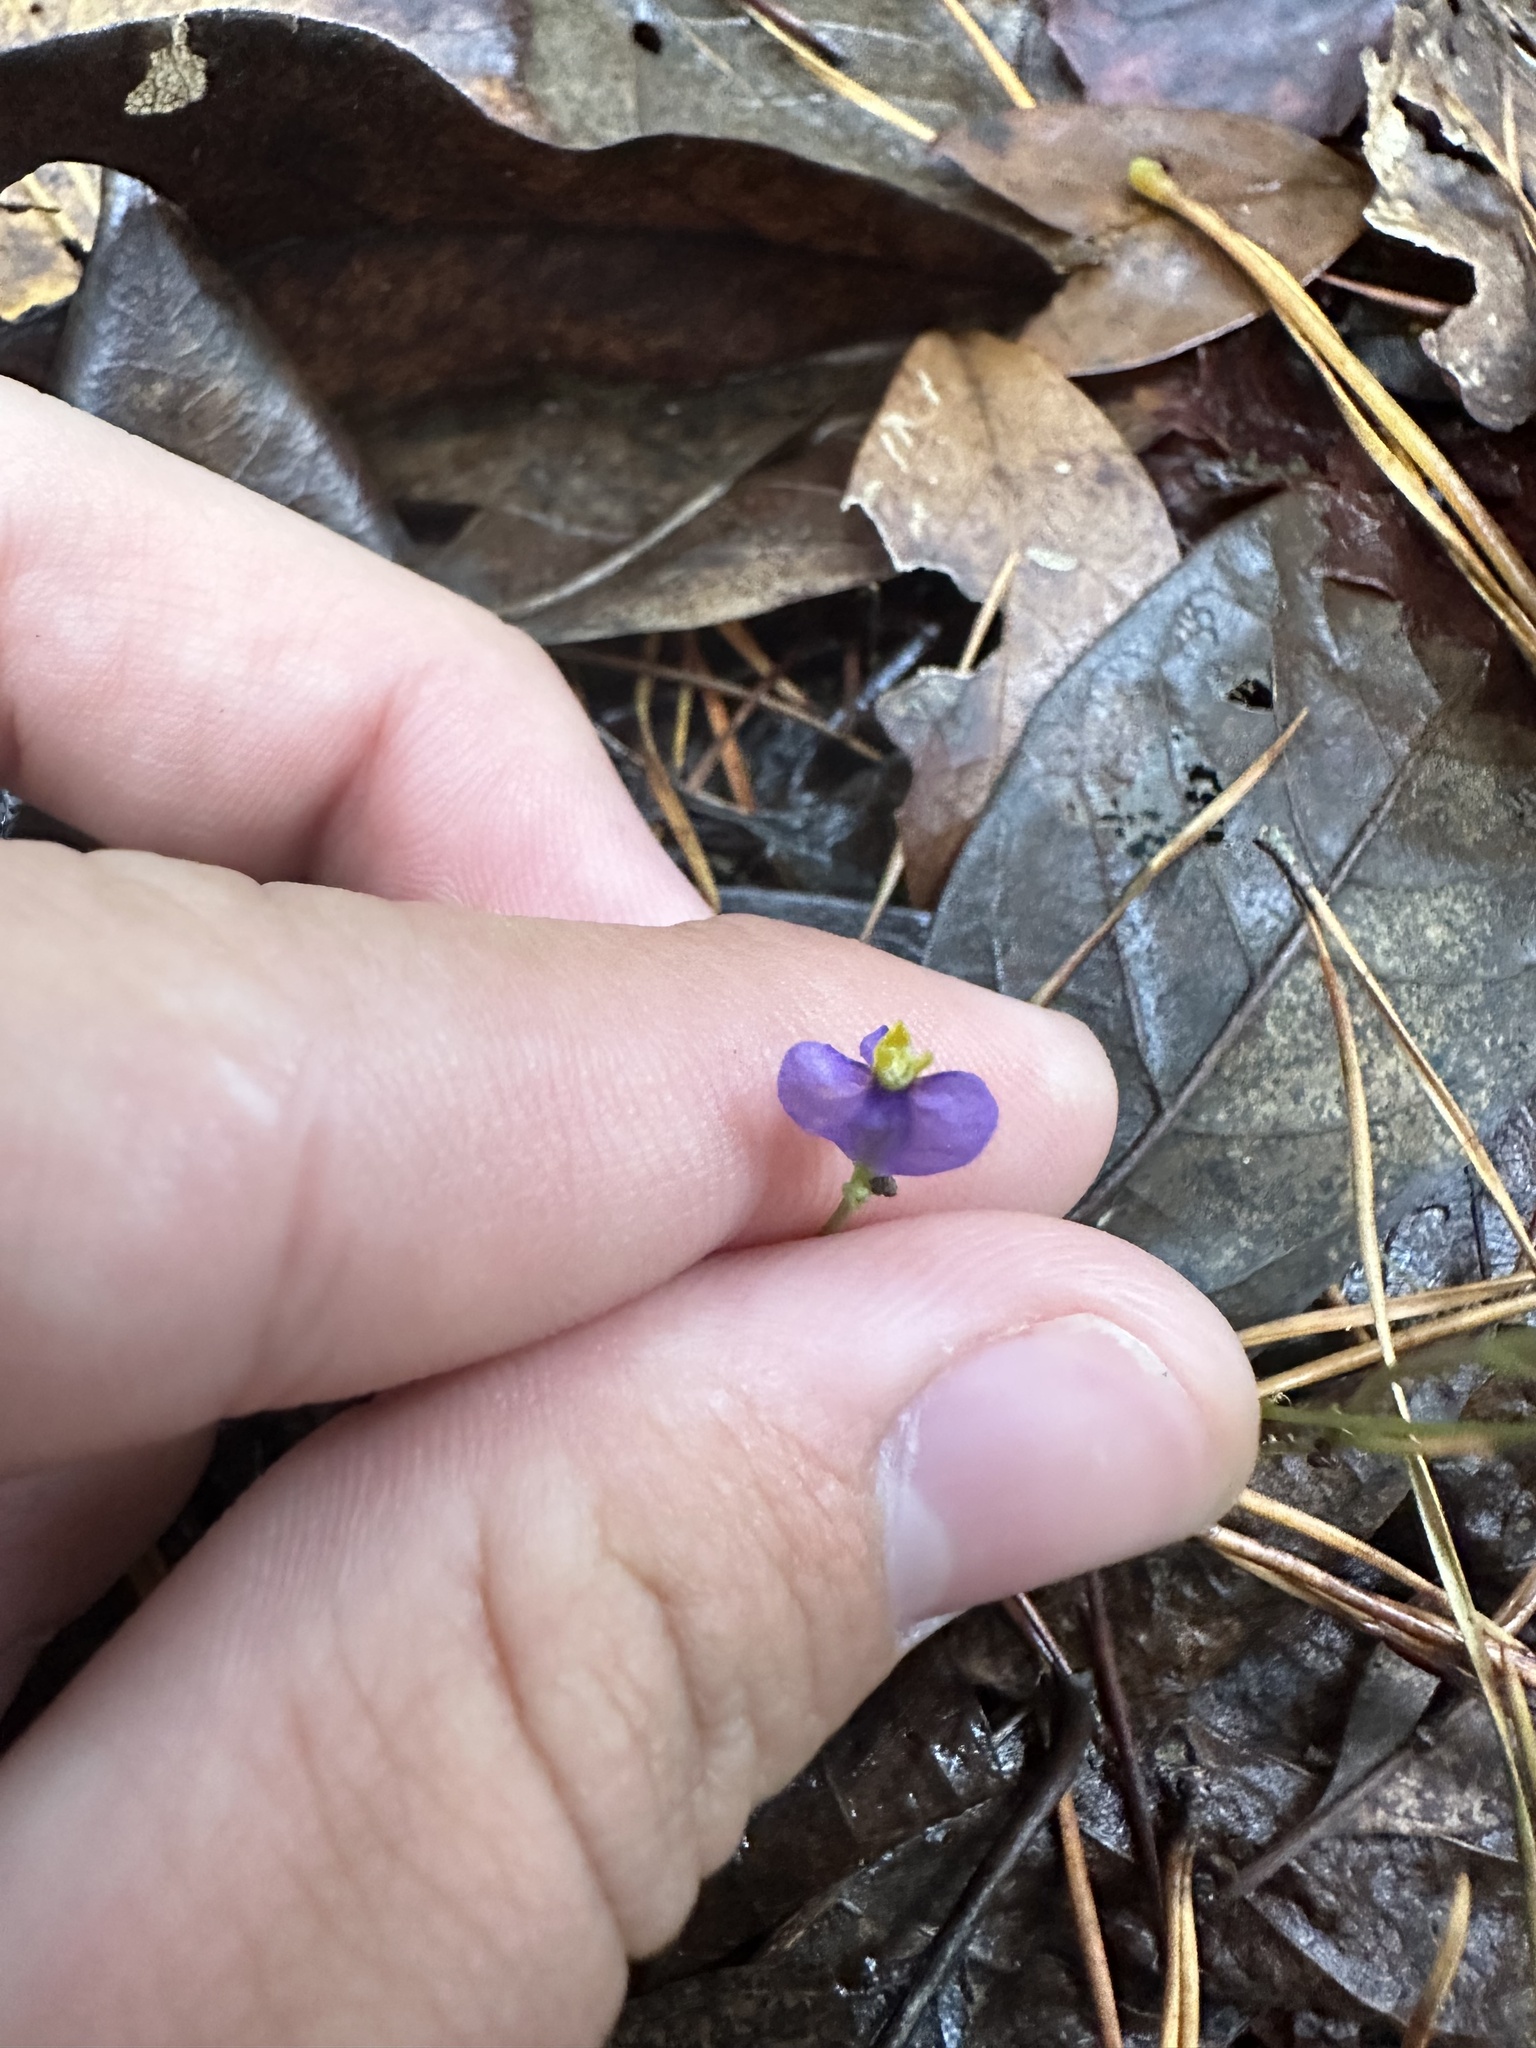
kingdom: Plantae
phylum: Tracheophyta
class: Liliopsida
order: Dioscoreales
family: Burmanniaceae
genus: Burmannia
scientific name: Burmannia biflora
